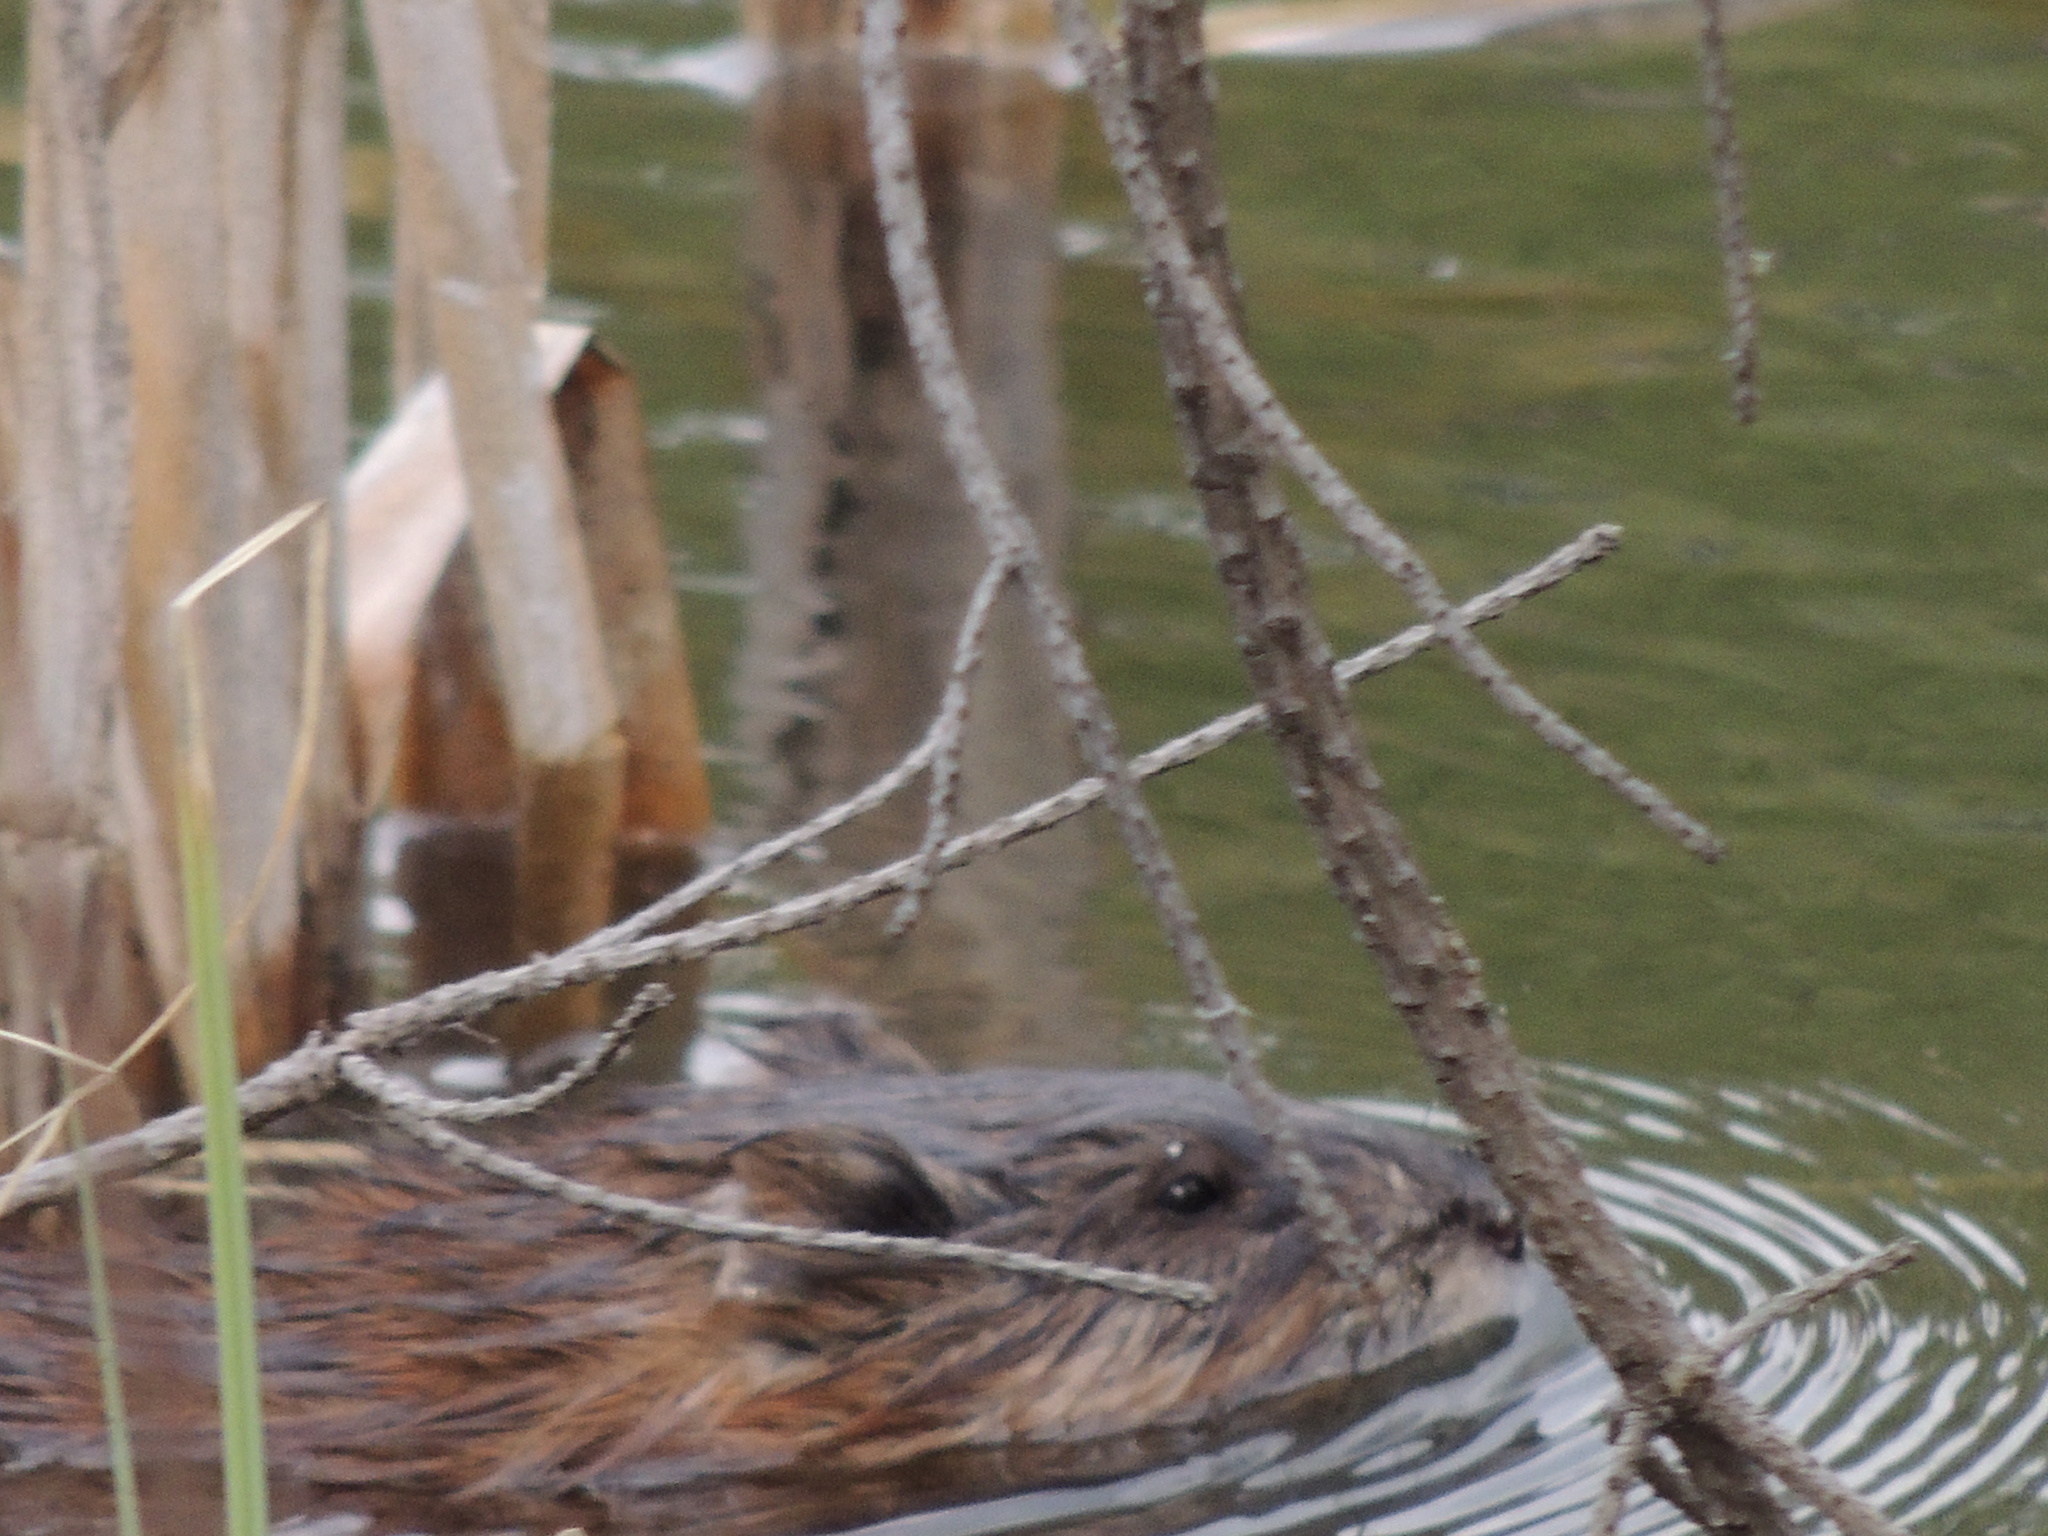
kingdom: Animalia
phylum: Chordata
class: Mammalia
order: Rodentia
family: Cricetidae
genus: Ondatra
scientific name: Ondatra zibethicus
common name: Muskrat
